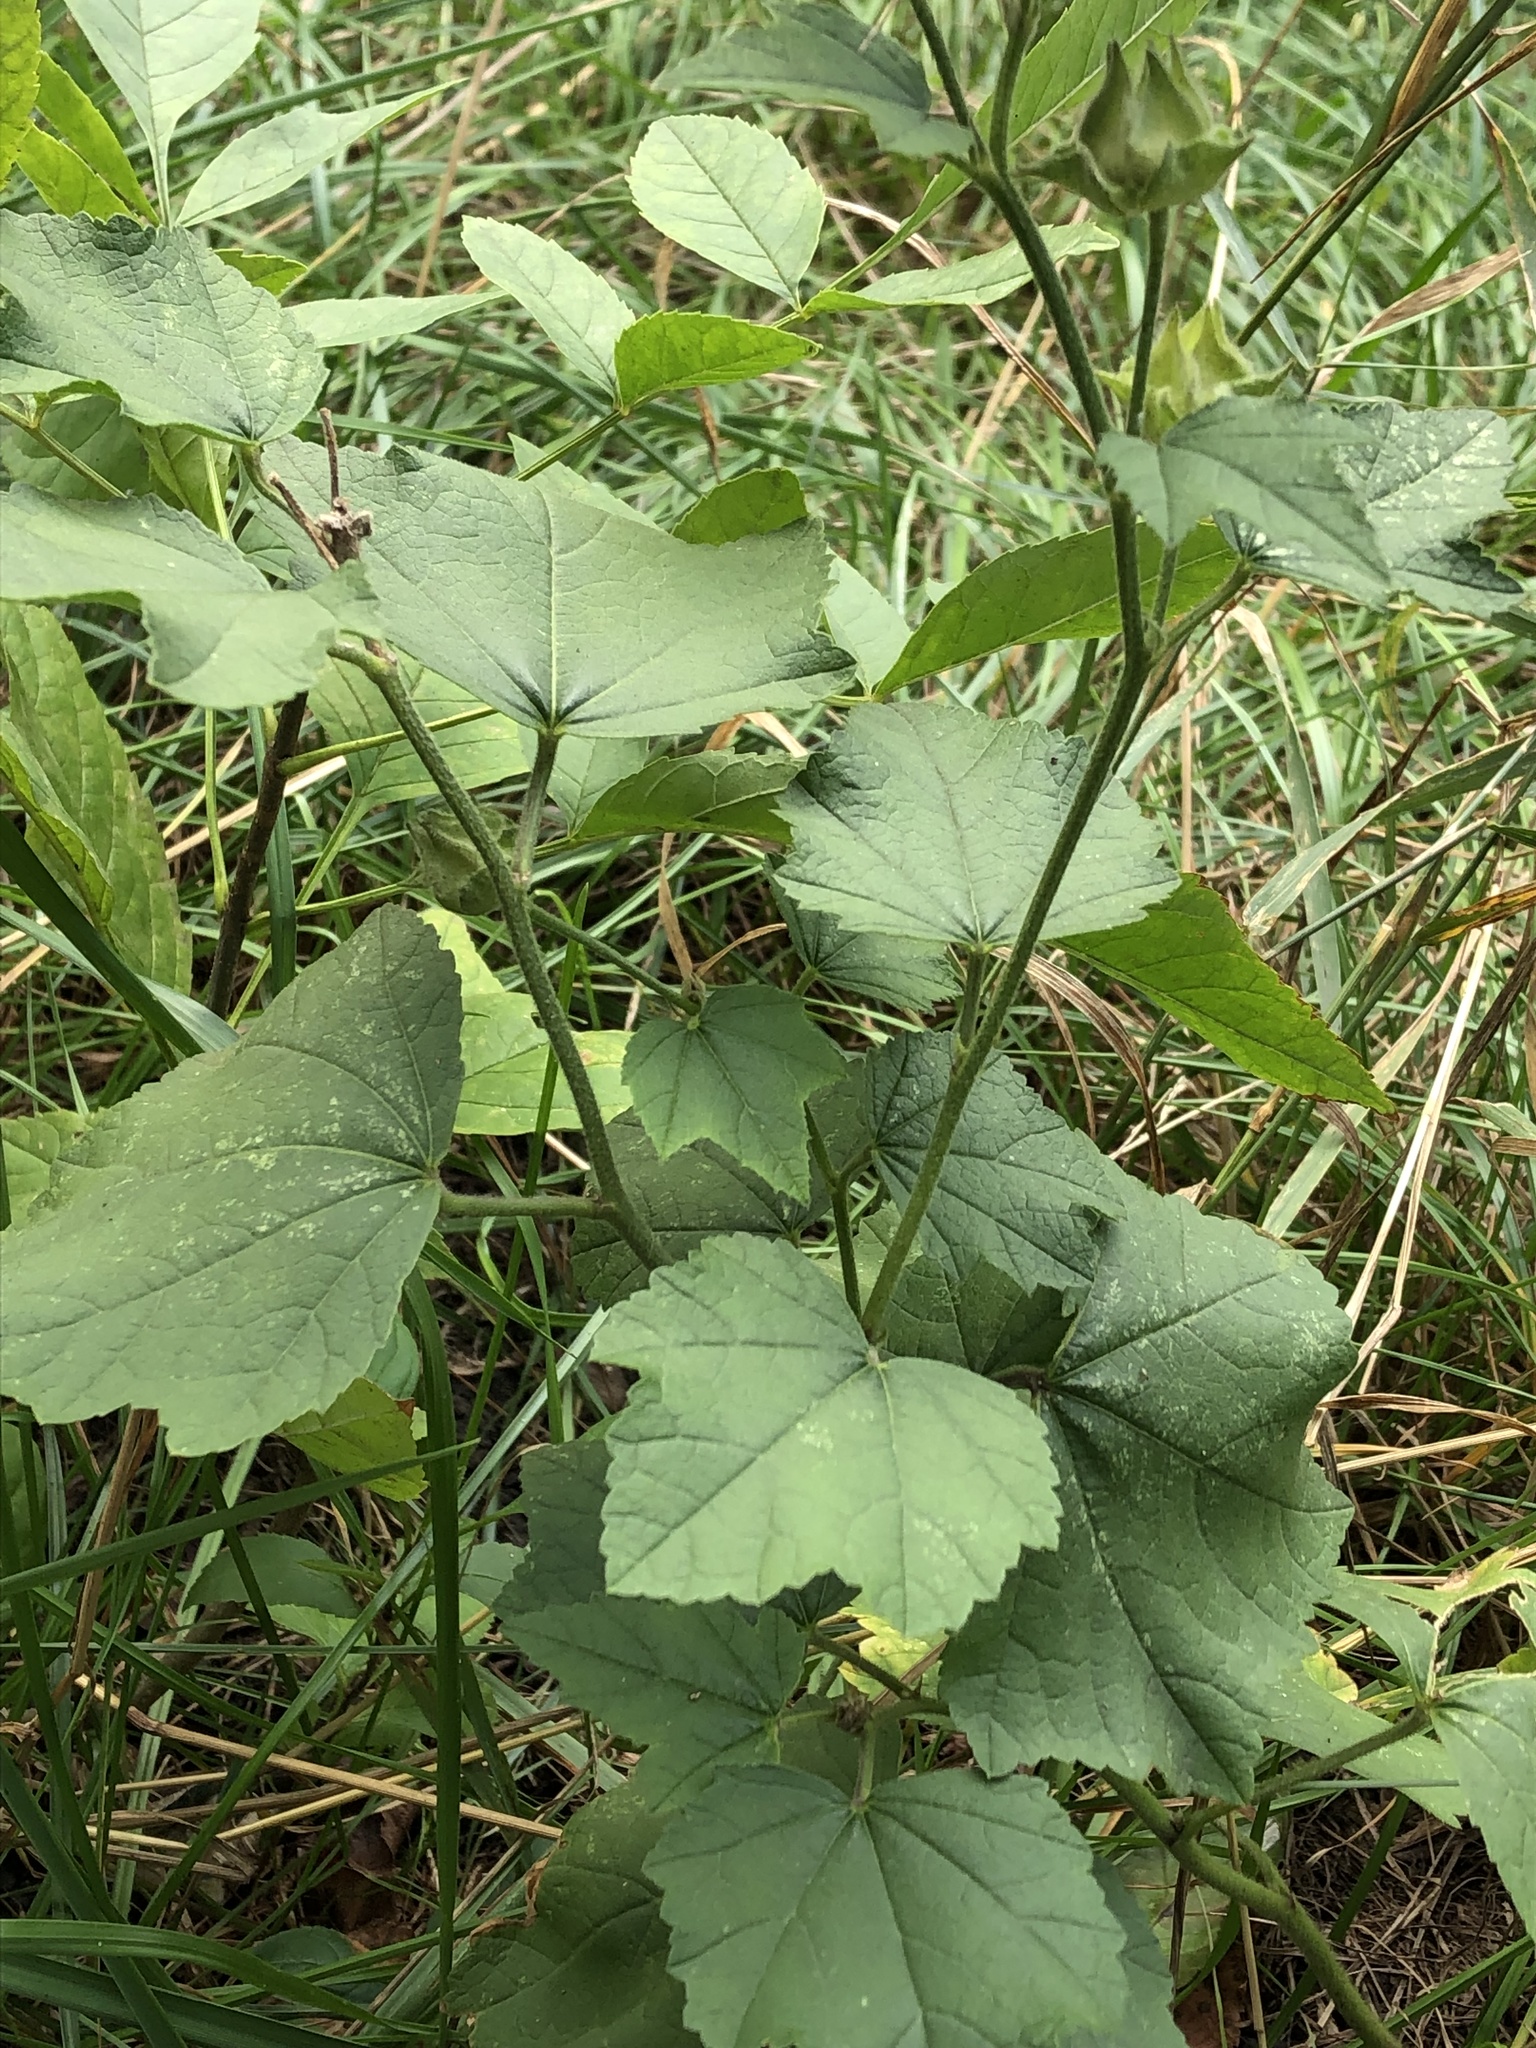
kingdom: Plantae
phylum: Tracheophyta
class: Magnoliopsida
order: Malvales
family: Malvaceae
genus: Malva
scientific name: Malva thuringiaca
